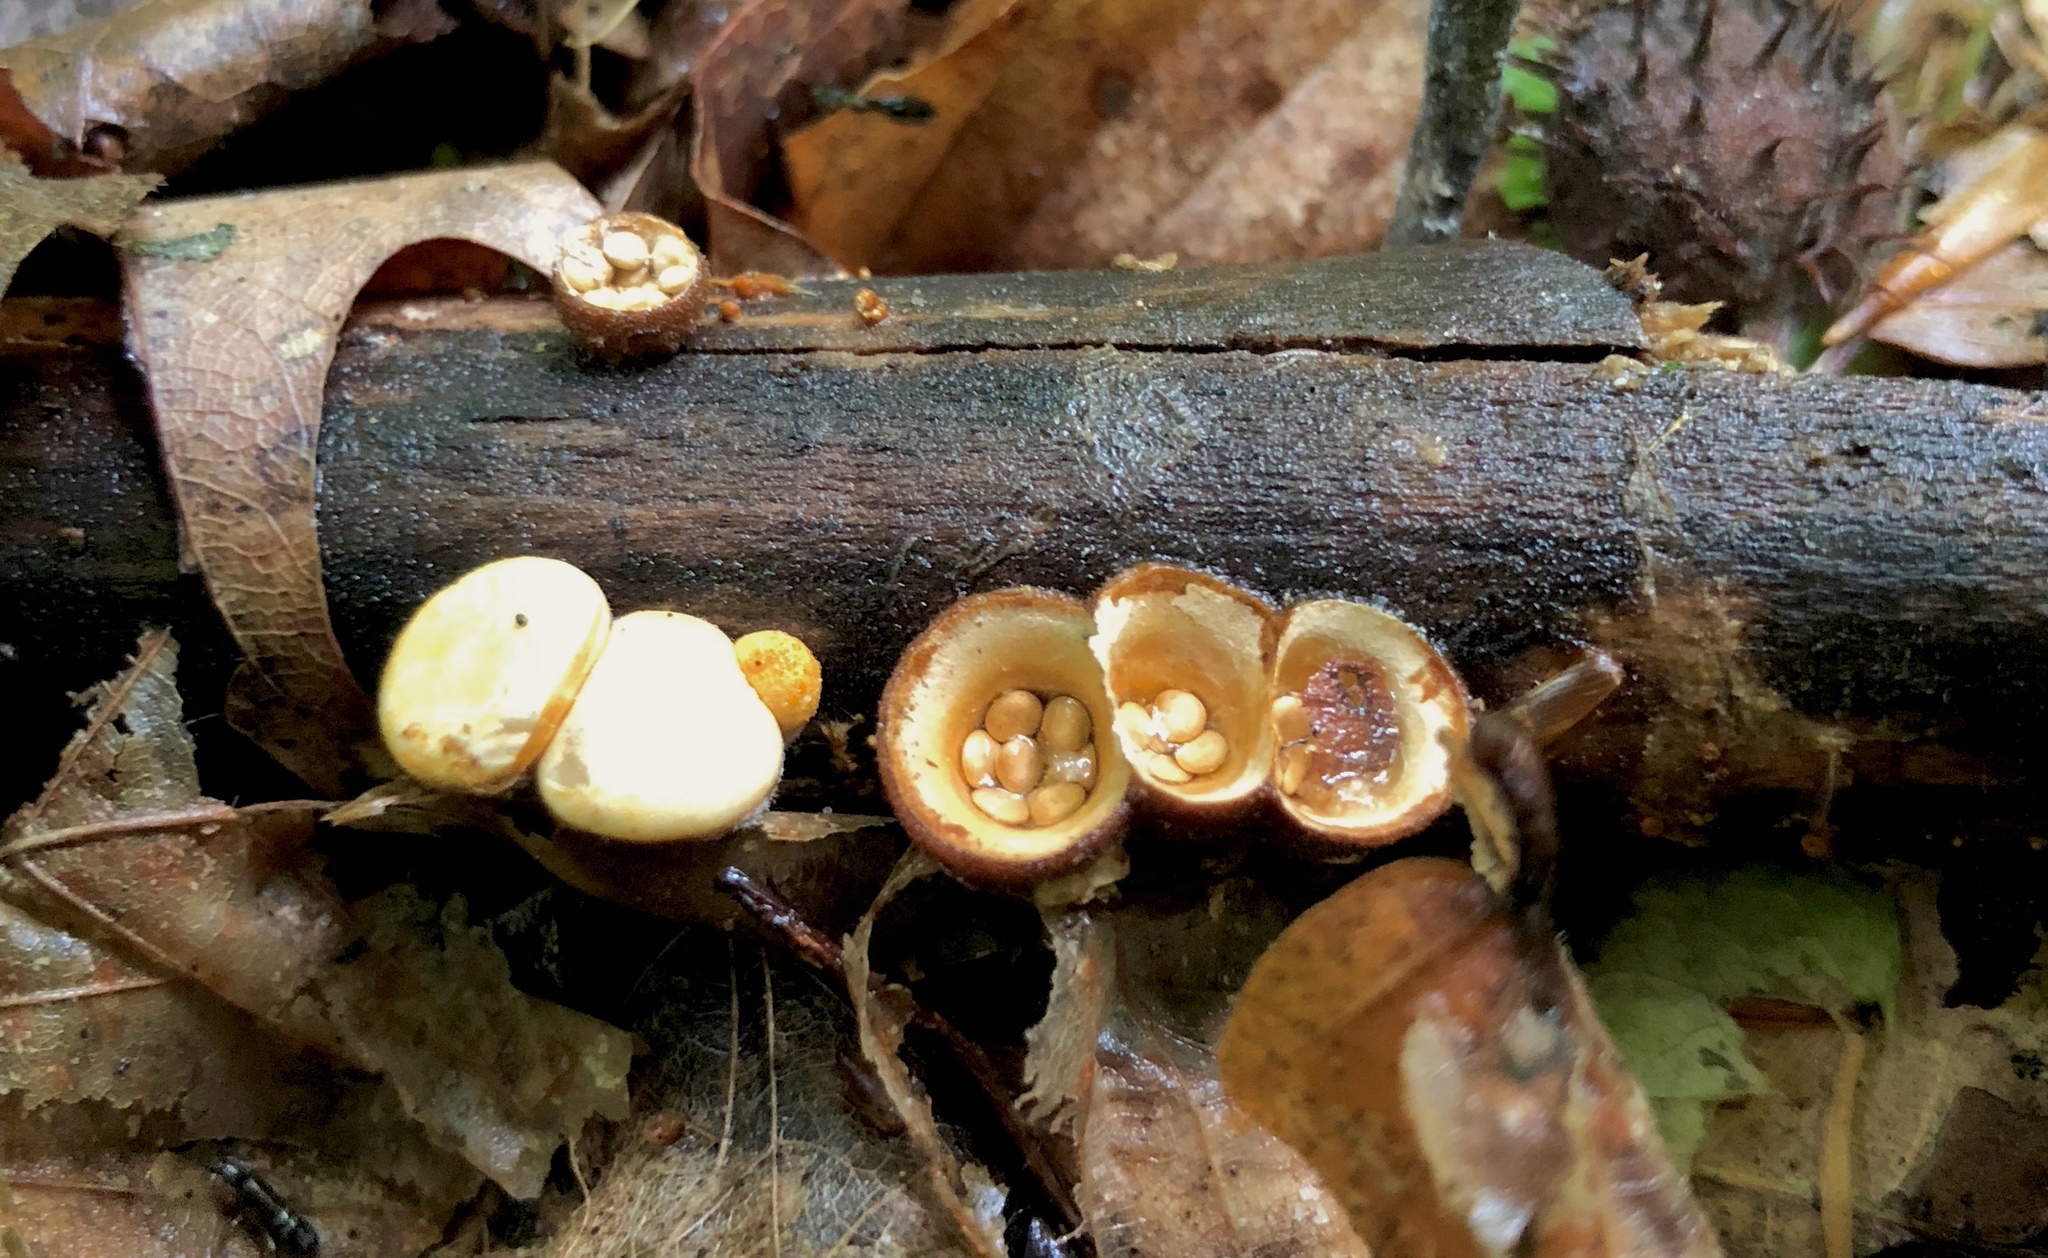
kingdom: Fungi
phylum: Basidiomycota
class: Agaricomycetes
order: Agaricales
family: Nidulariaceae
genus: Crucibulum
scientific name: Crucibulum laeve
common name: Common bird's nest
